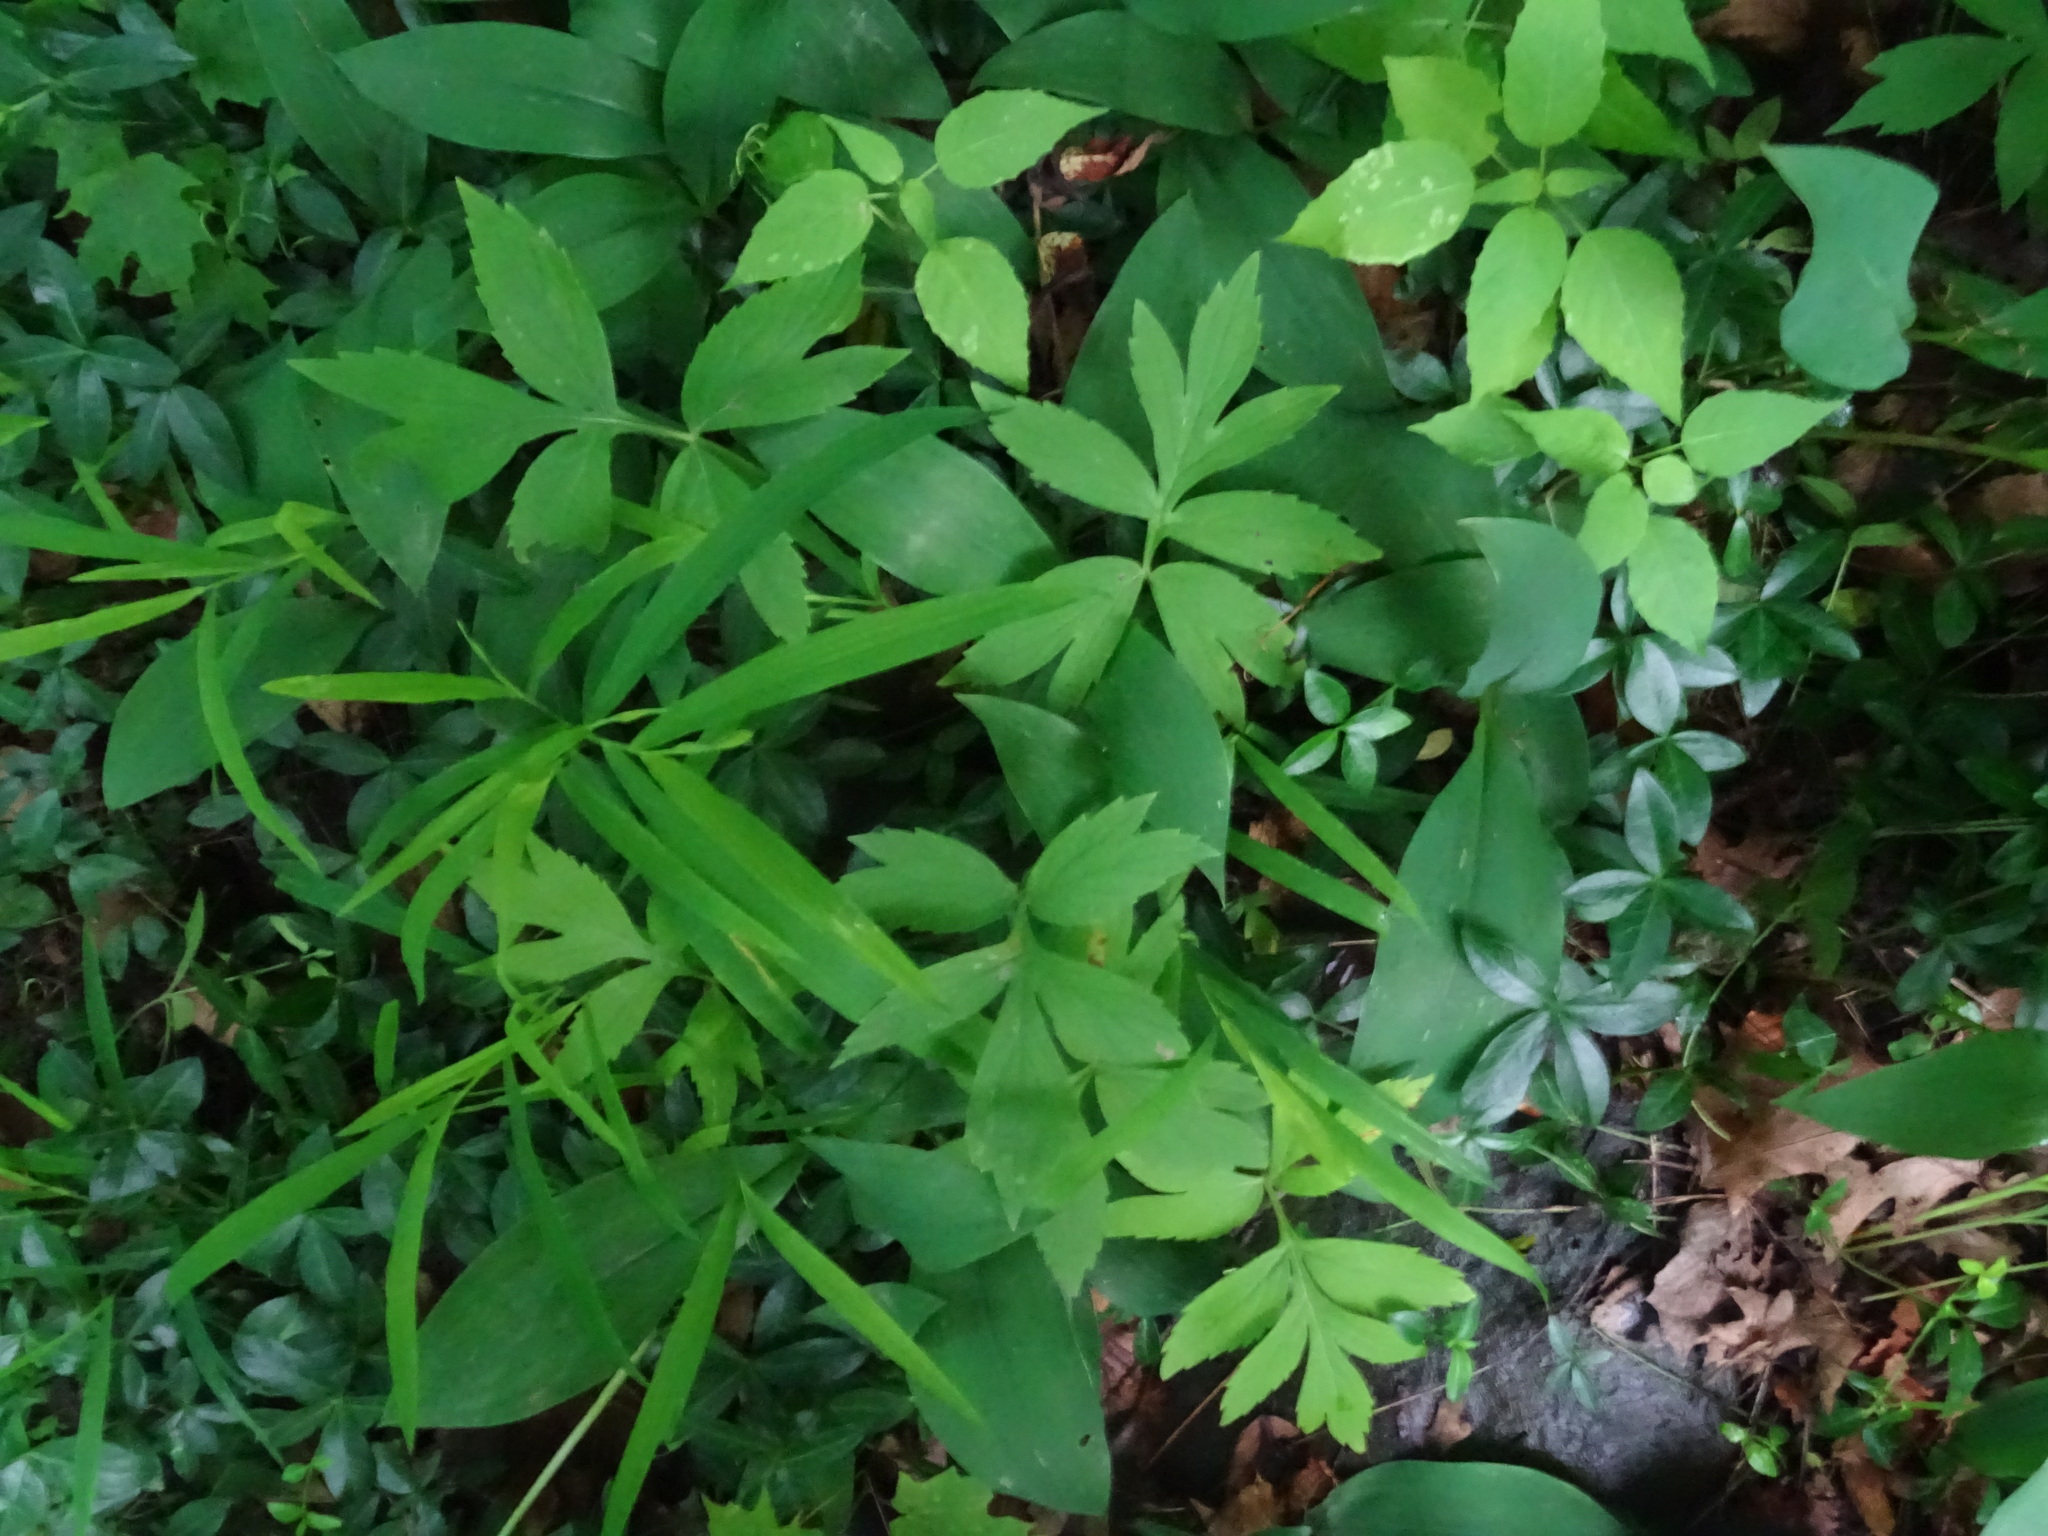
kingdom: Plantae
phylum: Tracheophyta
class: Magnoliopsida
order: Boraginales
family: Hydrophyllaceae
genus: Hydrophyllum
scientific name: Hydrophyllum virginianum
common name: Virginia waterleaf
